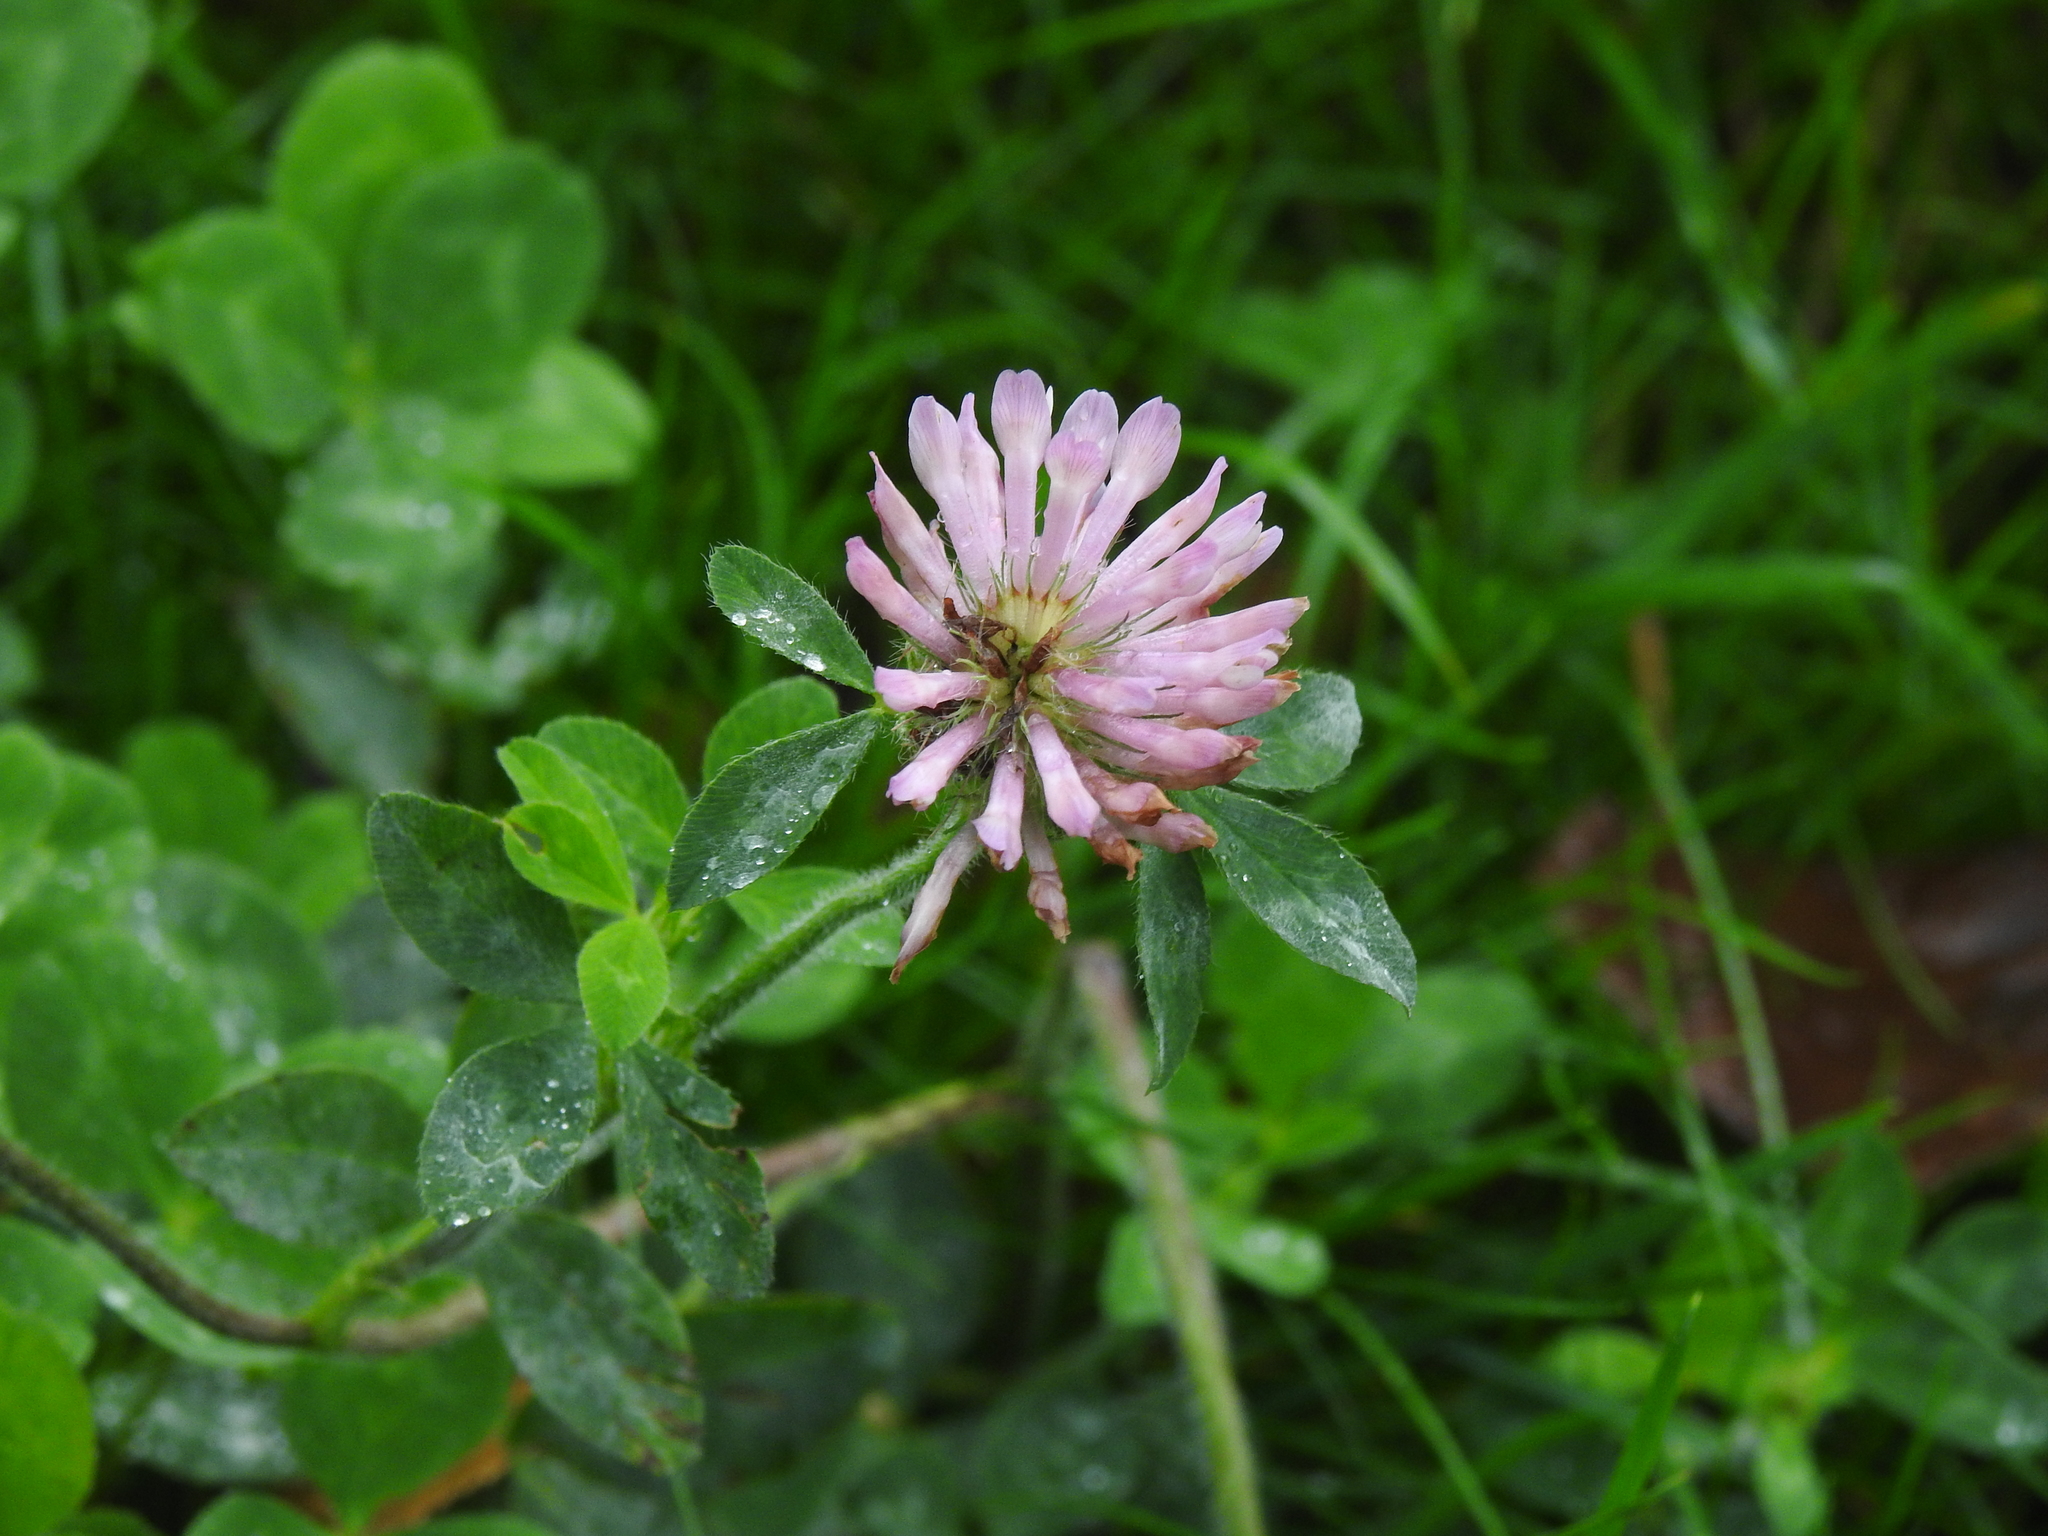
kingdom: Plantae
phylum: Tracheophyta
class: Magnoliopsida
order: Fabales
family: Fabaceae
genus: Trifolium
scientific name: Trifolium pratense
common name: Red clover
